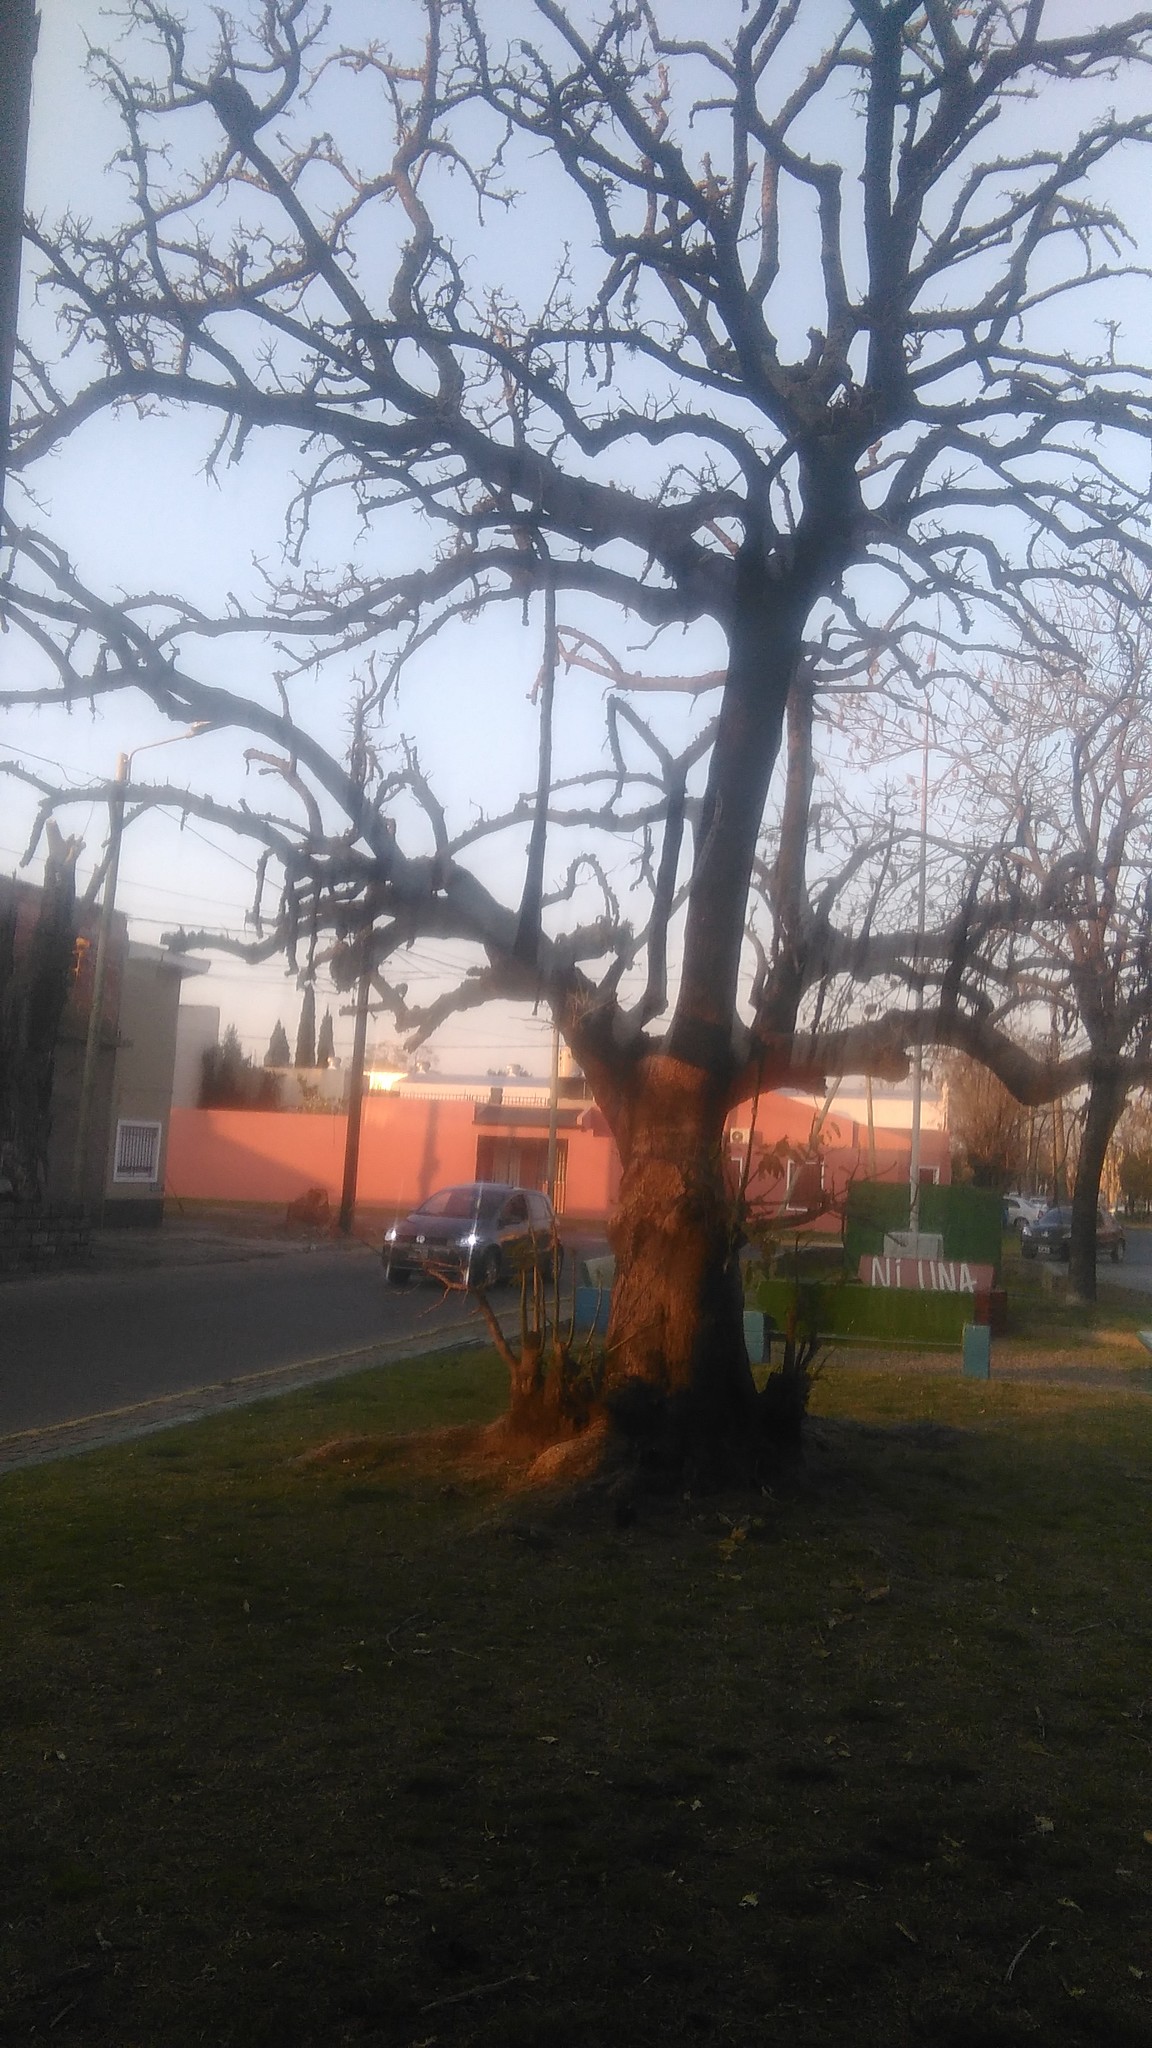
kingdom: Plantae
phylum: Tracheophyta
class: Magnoliopsida
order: Caryophyllales
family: Phytolaccaceae
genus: Phytolacca
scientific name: Phytolacca dioica
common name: Pokeweed
